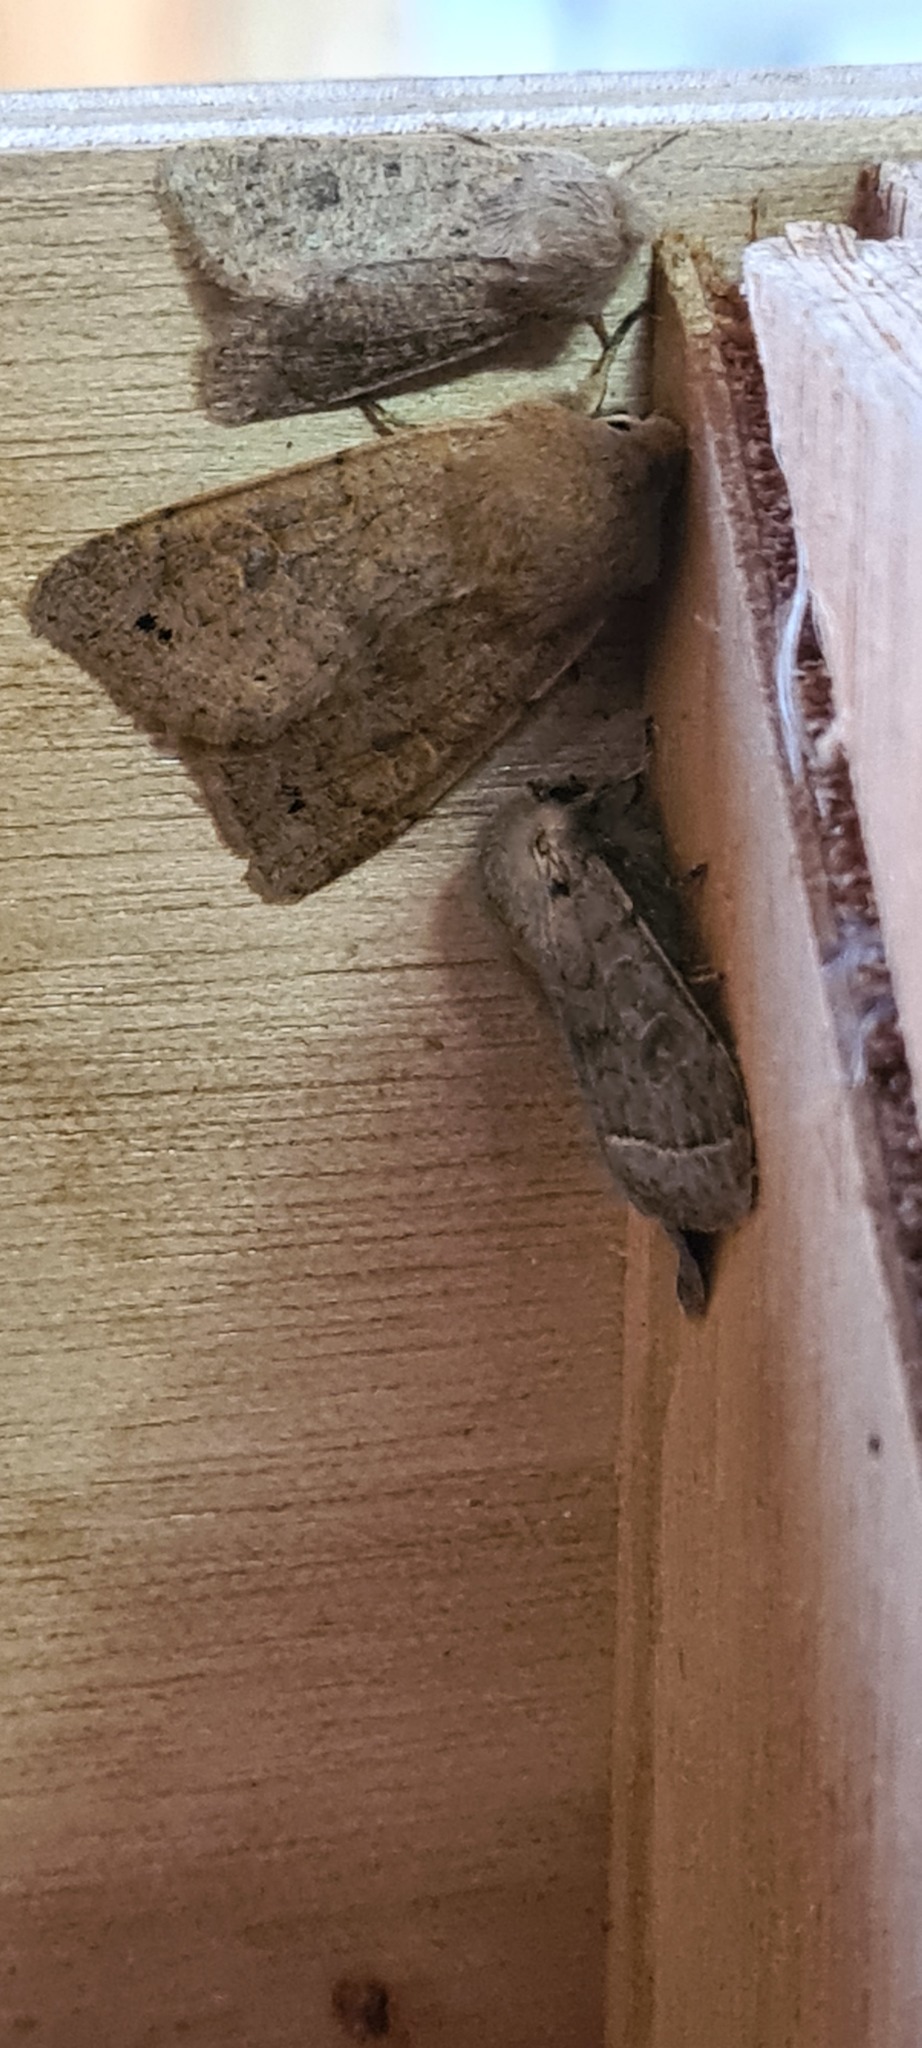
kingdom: Animalia
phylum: Arthropoda
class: Insecta
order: Lepidoptera
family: Noctuidae
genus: Orthosia
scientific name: Orthosia cerasi
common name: Common quaker
